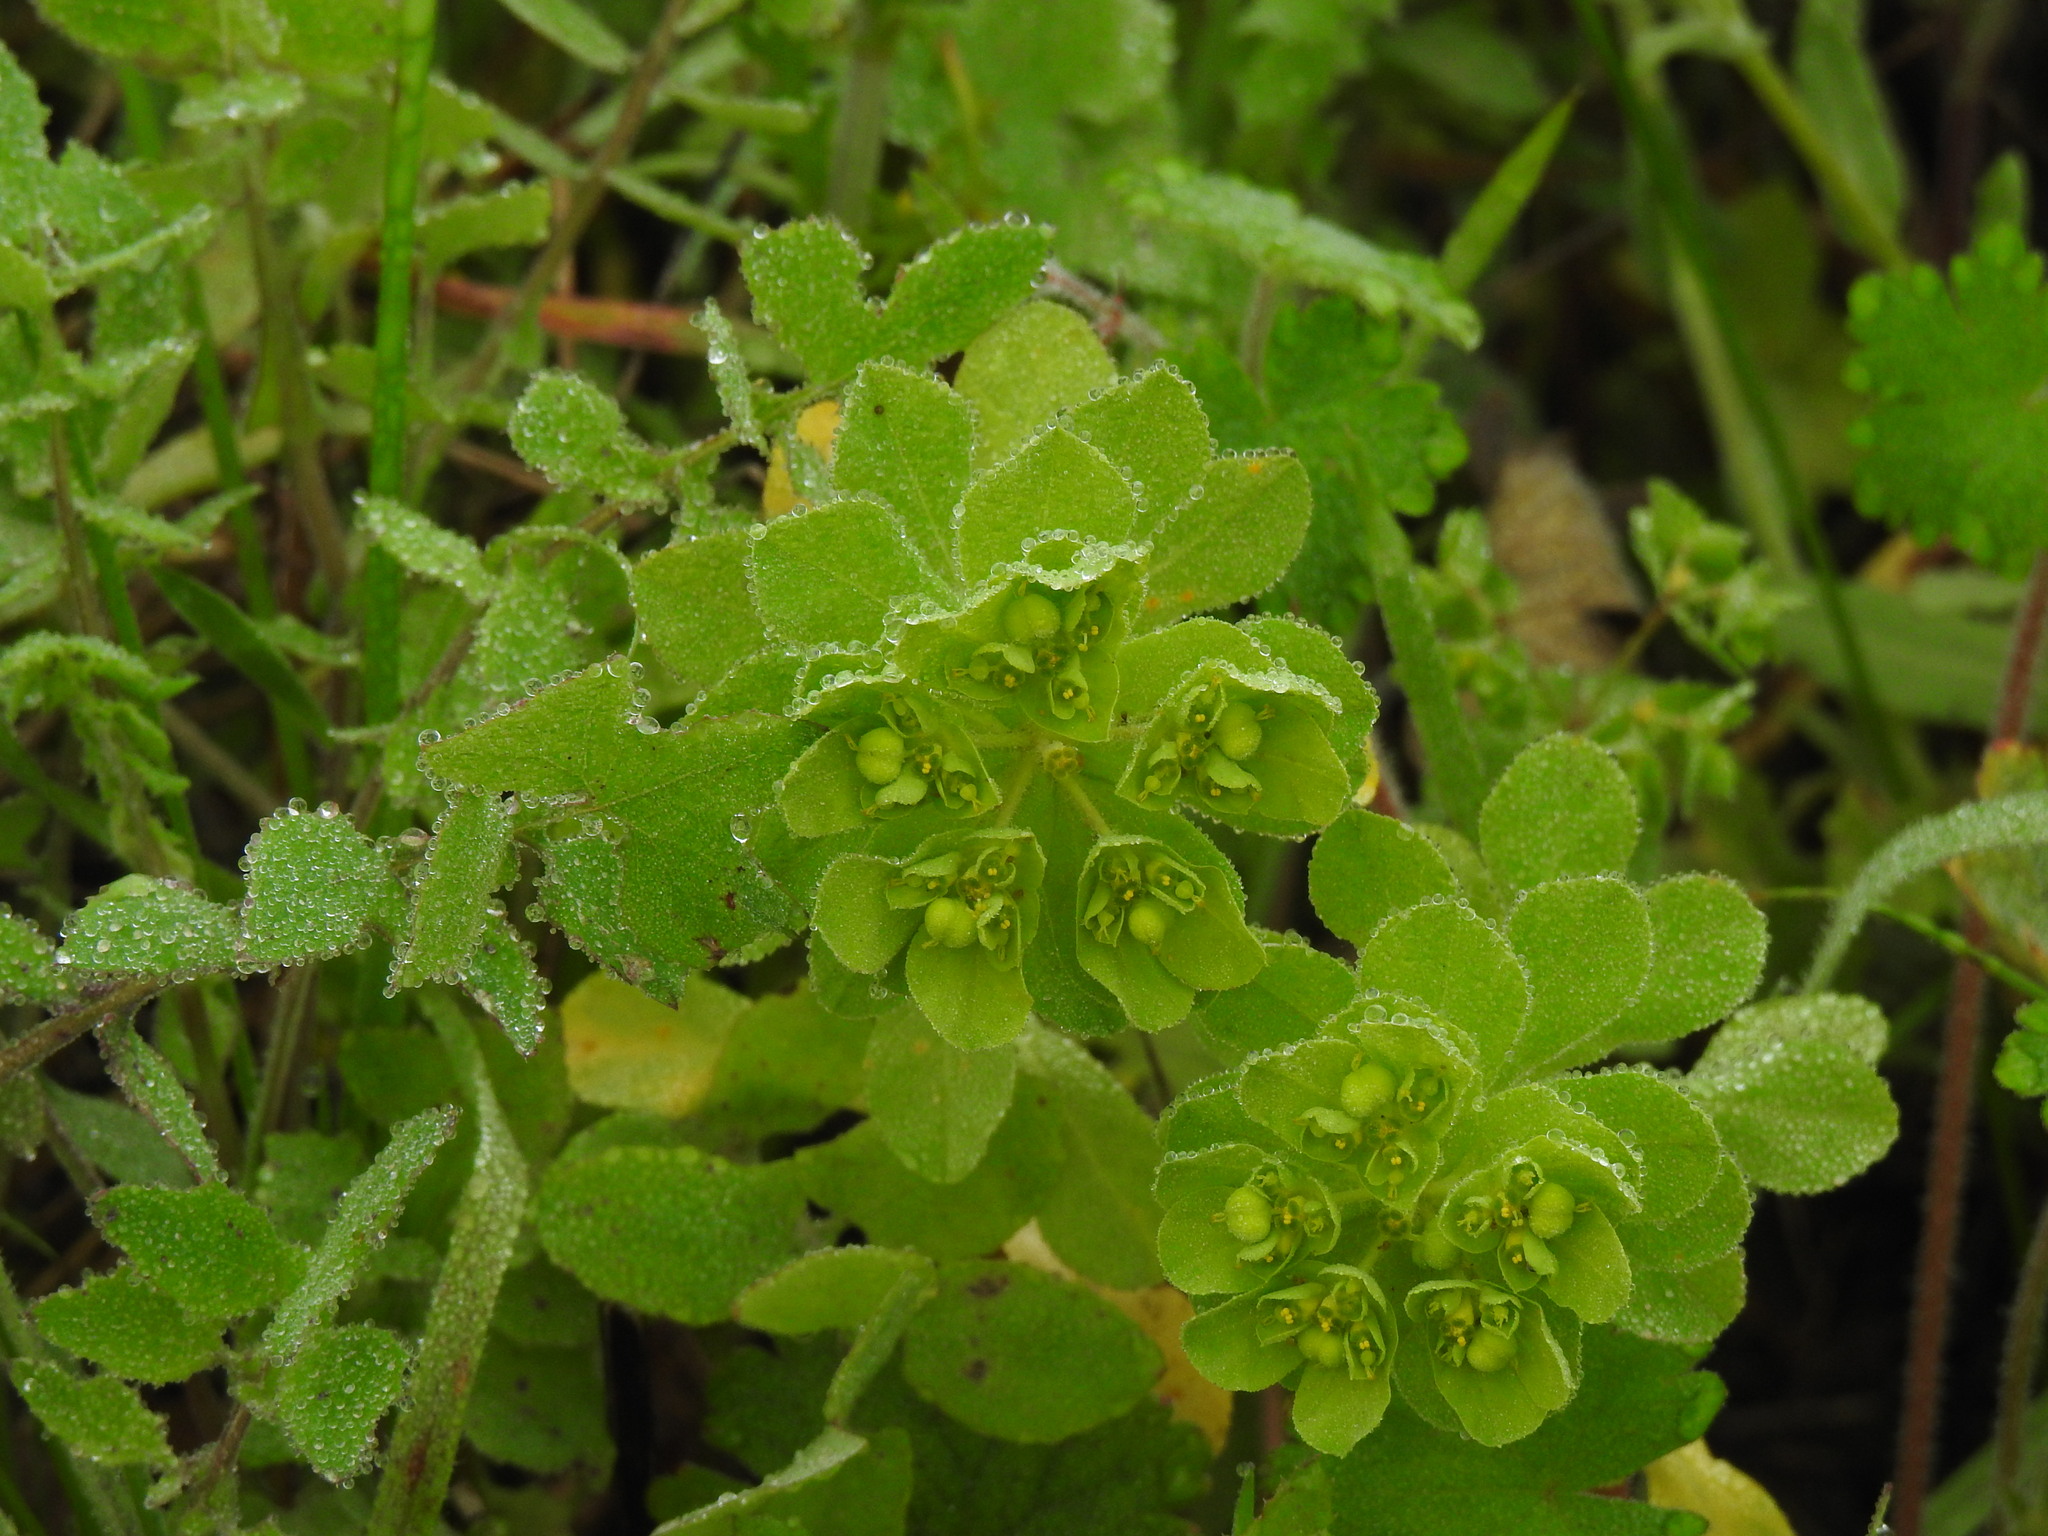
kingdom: Plantae
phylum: Tracheophyta
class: Magnoliopsida
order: Malpighiales
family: Euphorbiaceae
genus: Euphorbia
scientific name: Euphorbia helioscopia
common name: Sun spurge
